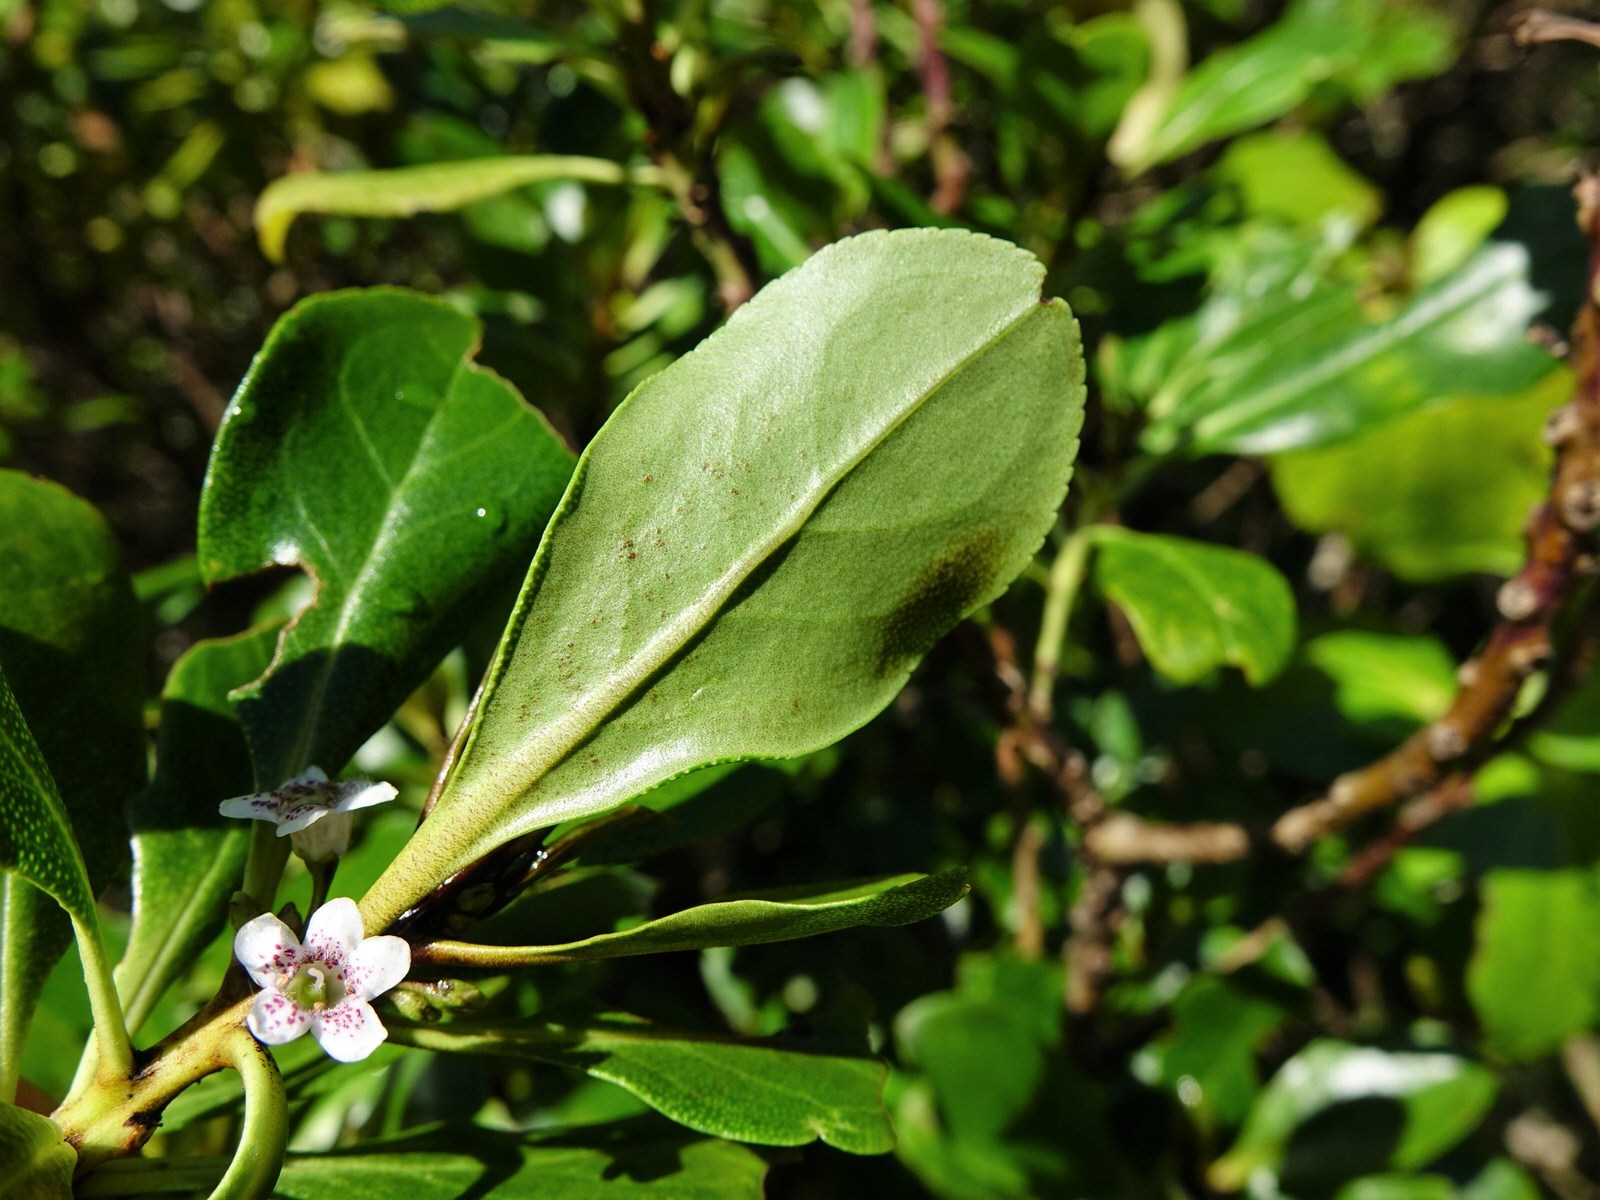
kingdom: Plantae
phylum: Tracheophyta
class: Magnoliopsida
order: Lamiales
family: Scrophulariaceae
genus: Myoporum
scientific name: Myoporum laetum
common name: Ngaio tree
